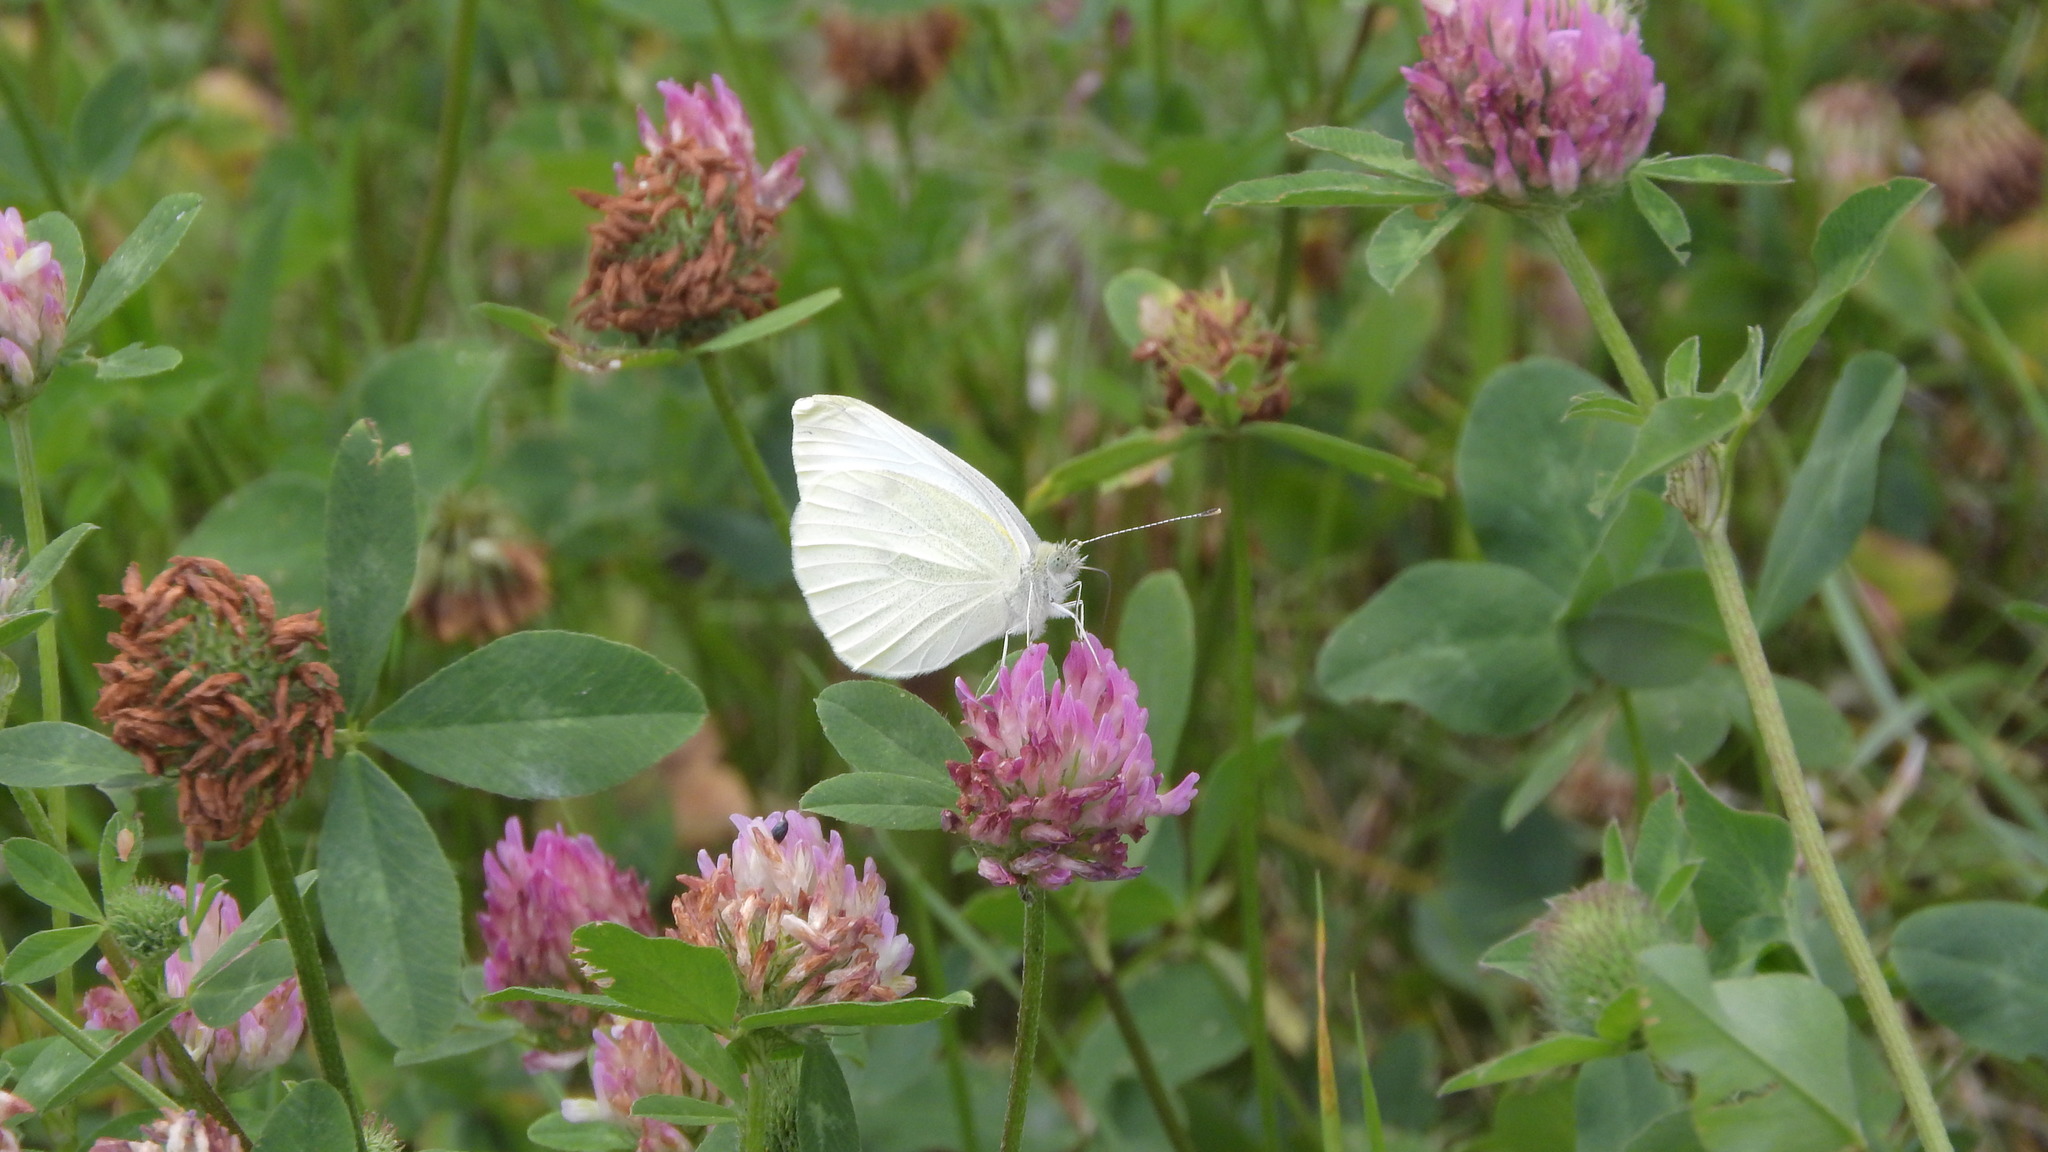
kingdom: Animalia
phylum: Arthropoda
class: Insecta
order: Lepidoptera
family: Pieridae
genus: Pieris
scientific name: Pieris rapae
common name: Small white
